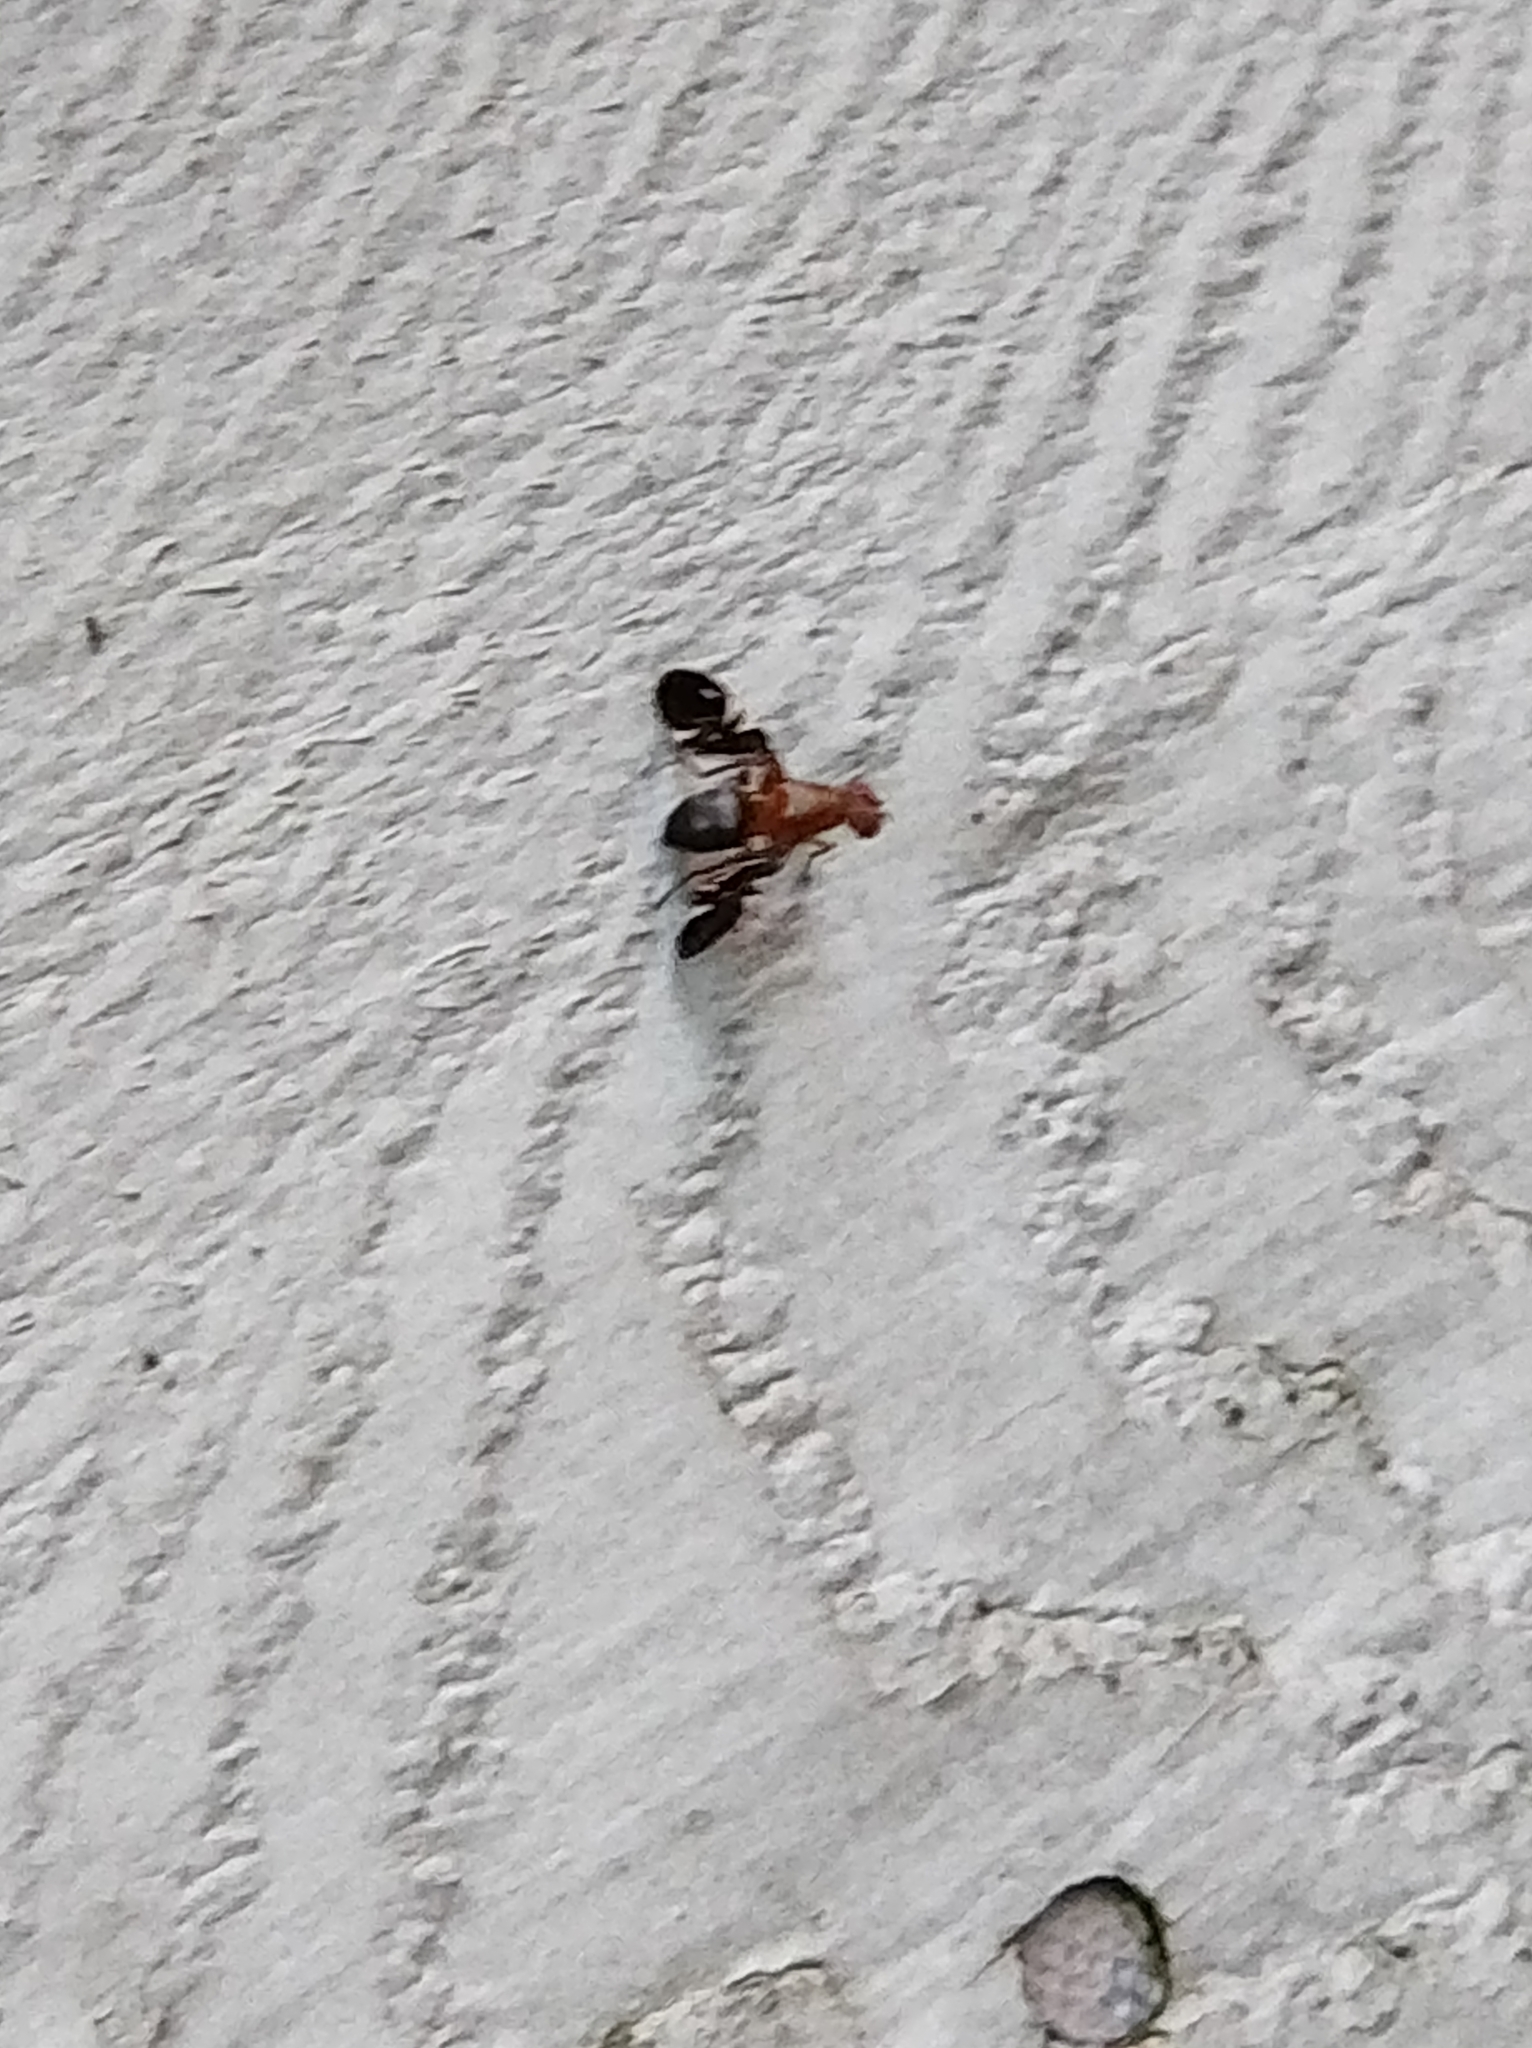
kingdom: Animalia
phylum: Arthropoda
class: Insecta
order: Diptera
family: Ulidiidae
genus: Delphinia
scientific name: Delphinia picta
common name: Common picture-winged fly
